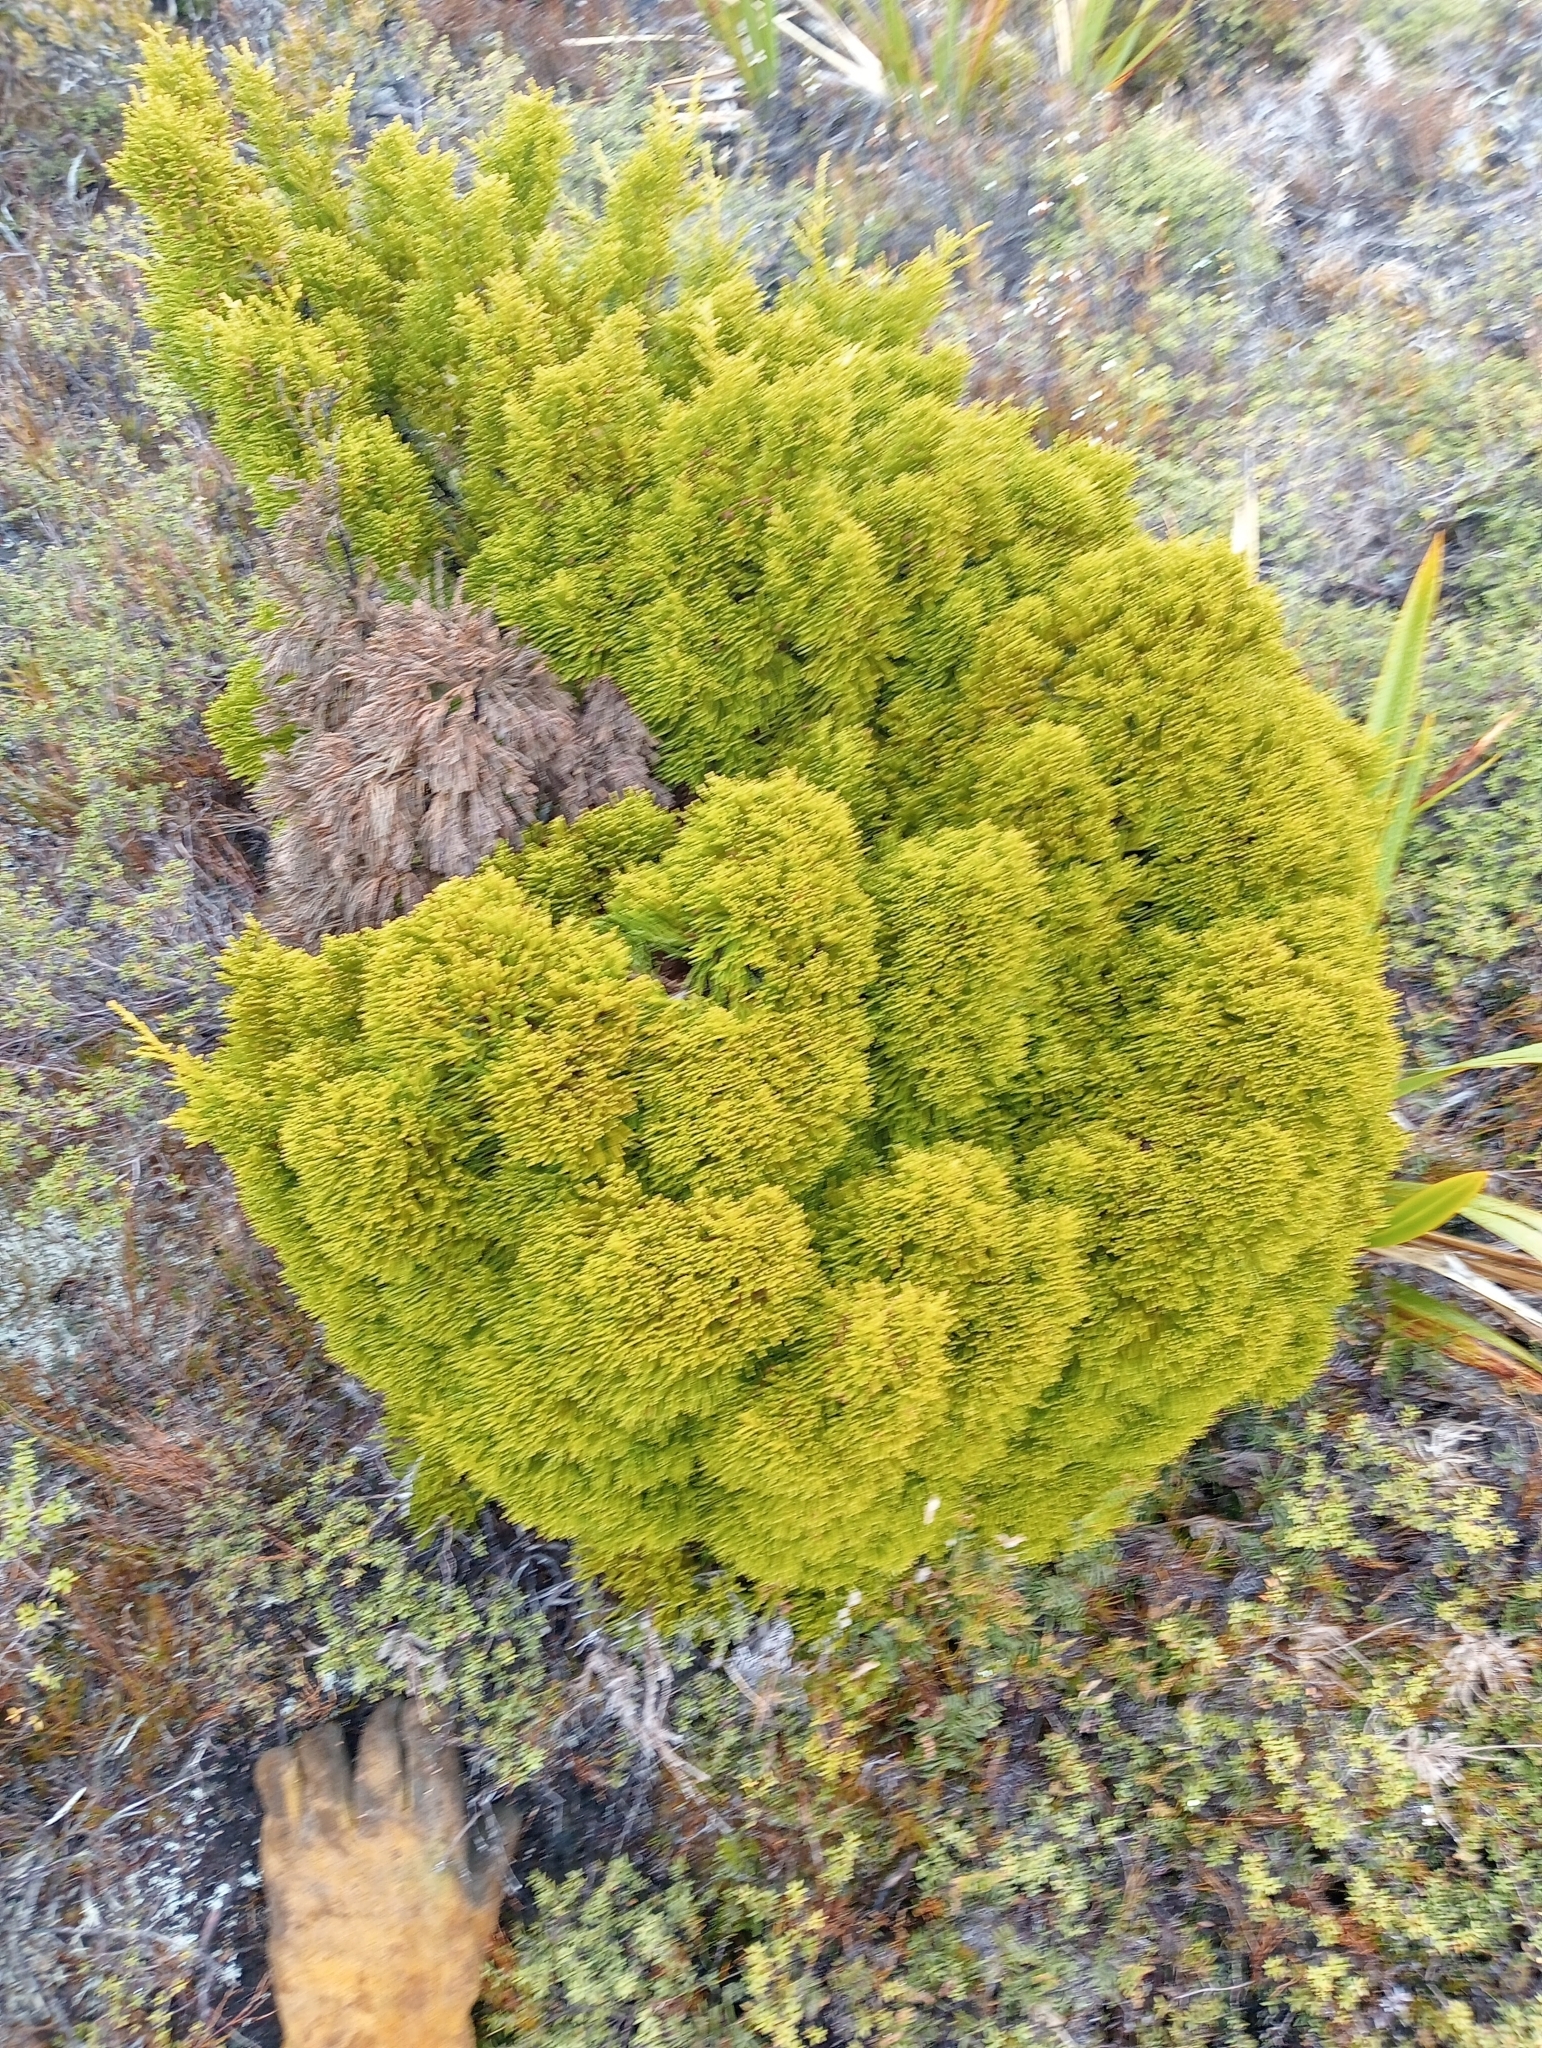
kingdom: Plantae
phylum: Tracheophyta
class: Pinopsida
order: Pinales
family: Podocarpaceae
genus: Halocarpus
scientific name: Halocarpus bidwillii
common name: Bog pine
